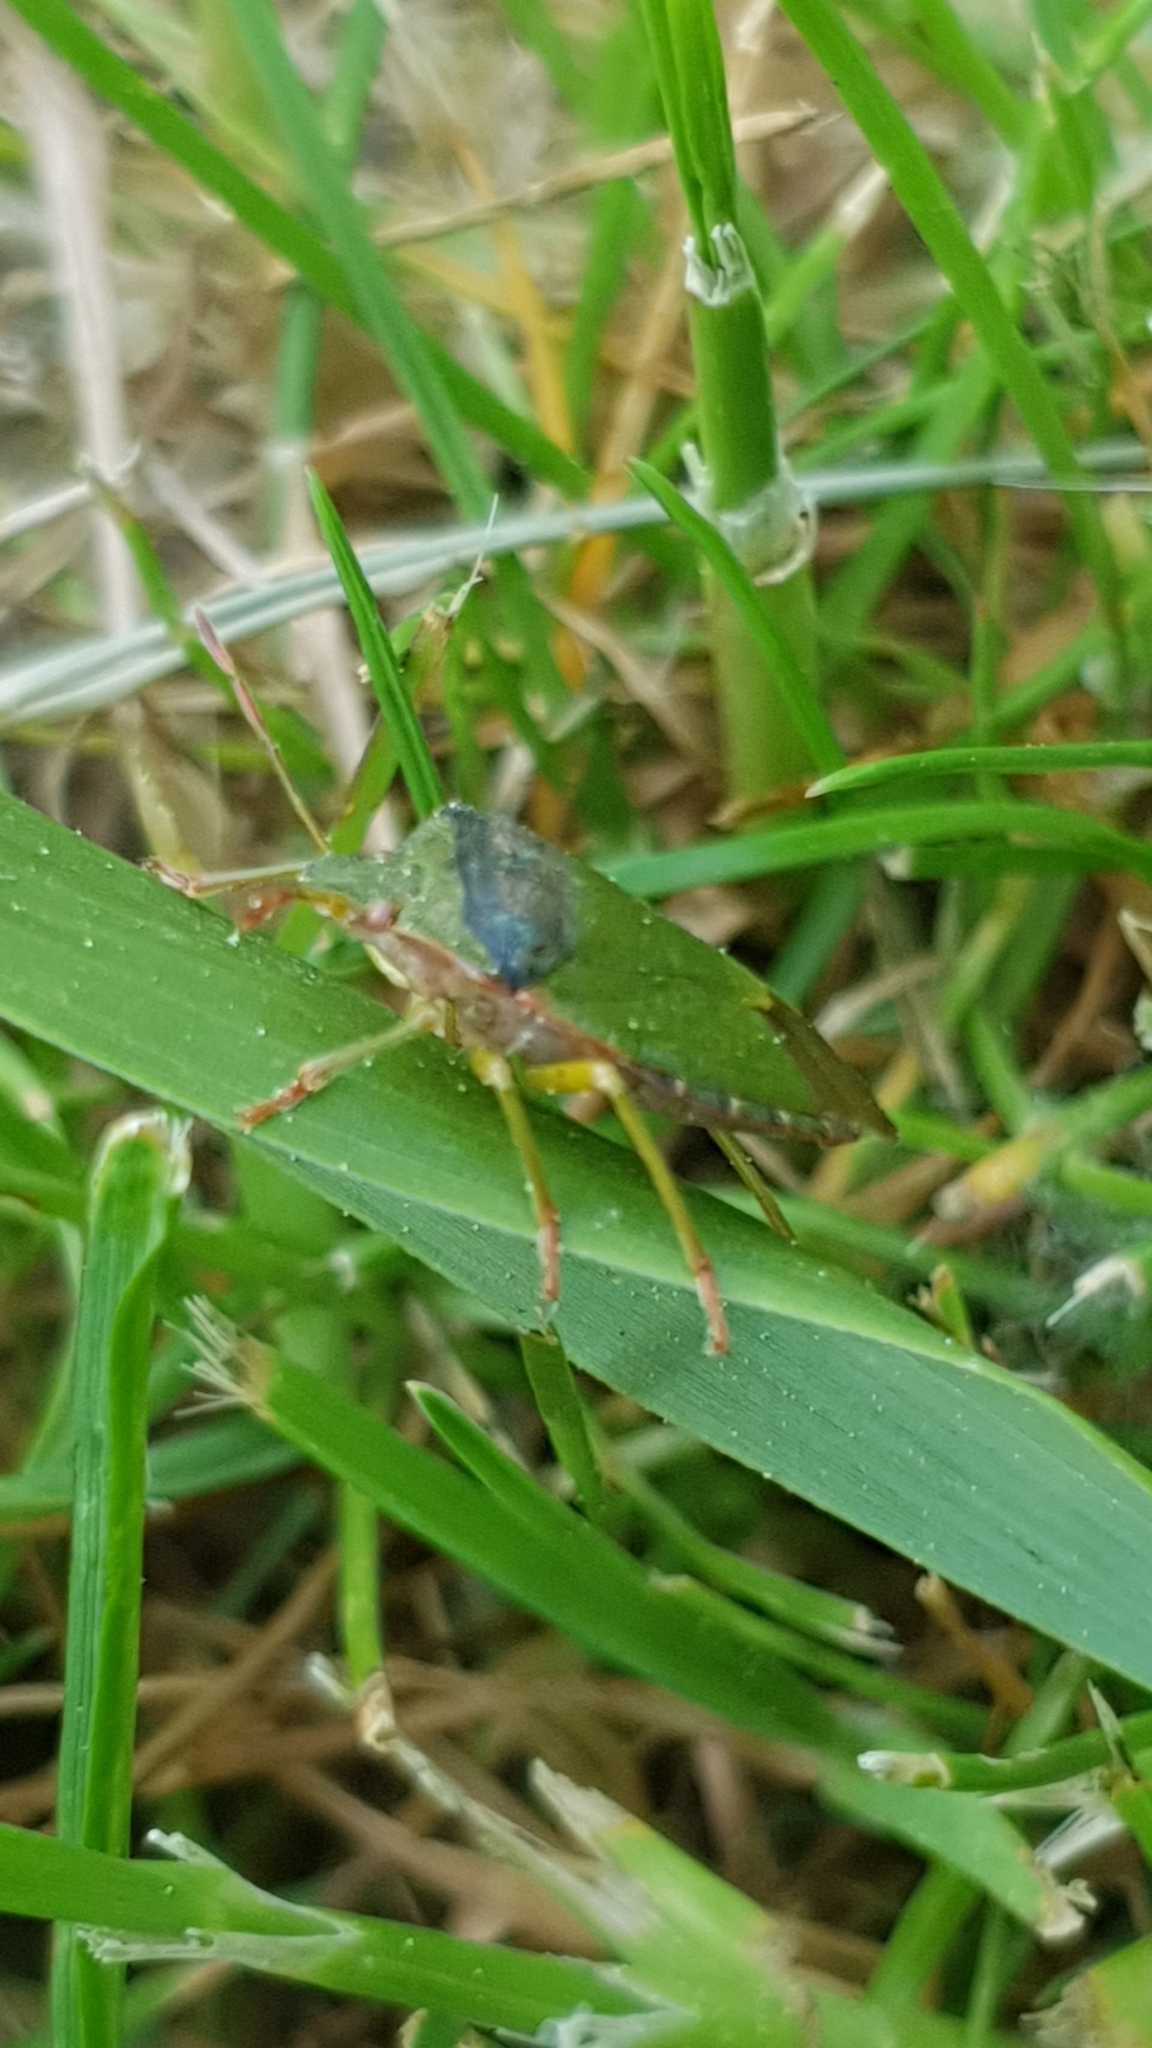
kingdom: Animalia
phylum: Arthropoda
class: Insecta
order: Hemiptera
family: Pentatomidae
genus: Palomena
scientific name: Palomena prasina
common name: Green shieldbug
